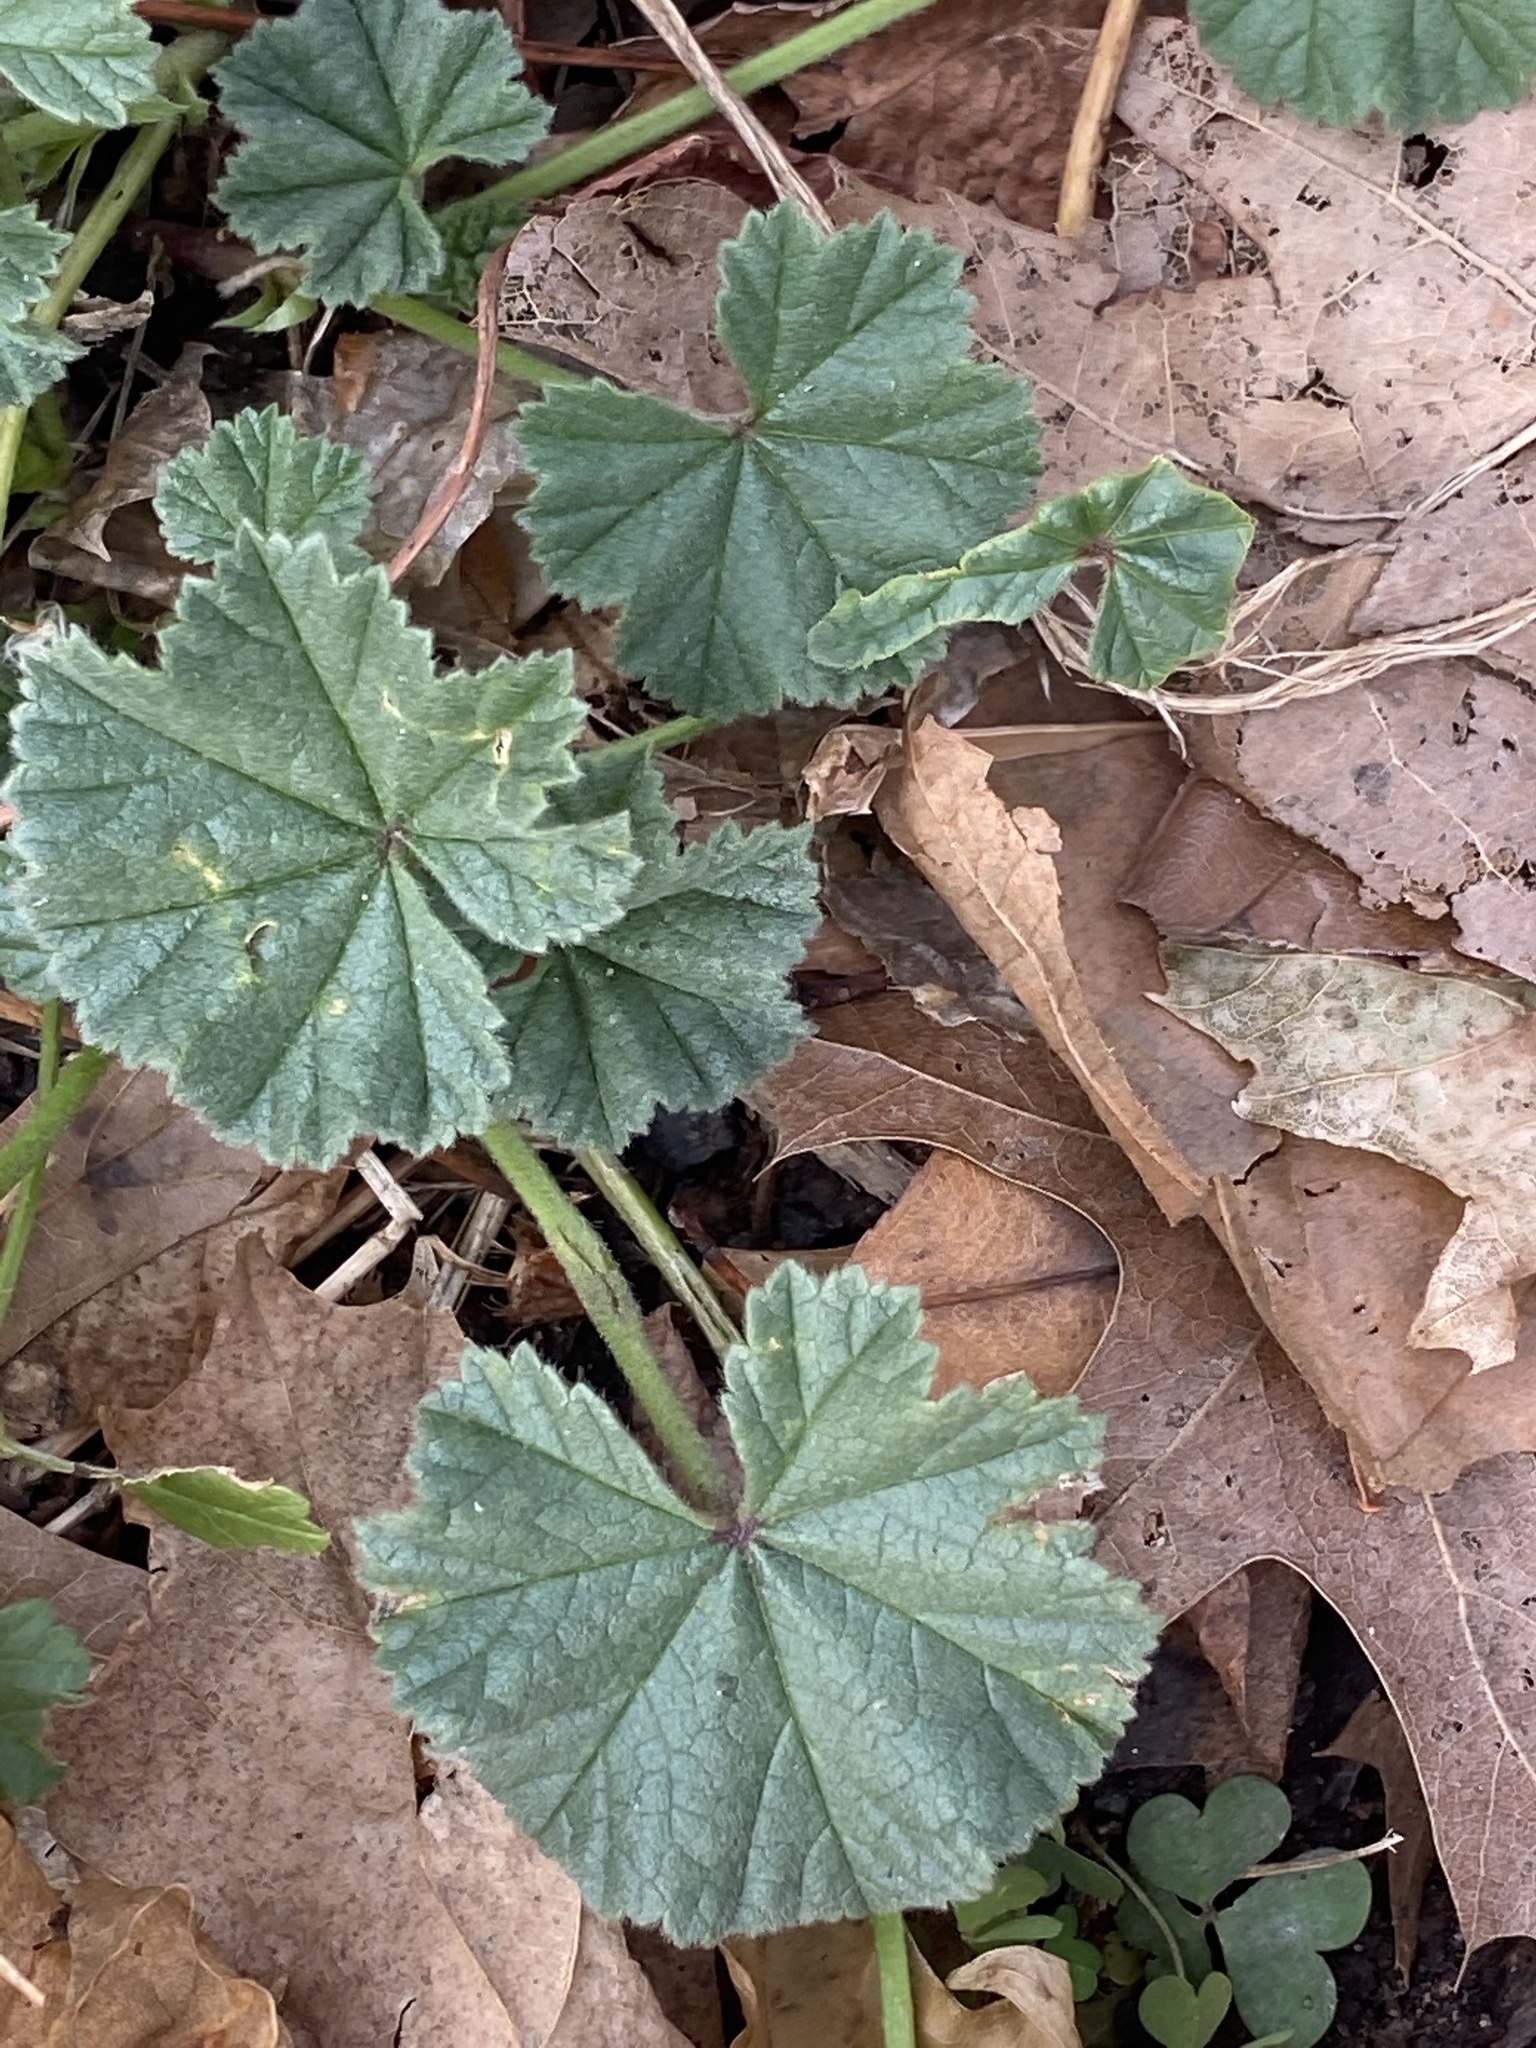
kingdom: Plantae
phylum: Tracheophyta
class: Magnoliopsida
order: Malvales
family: Malvaceae
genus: Malva
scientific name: Malva neglecta
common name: Common mallow
